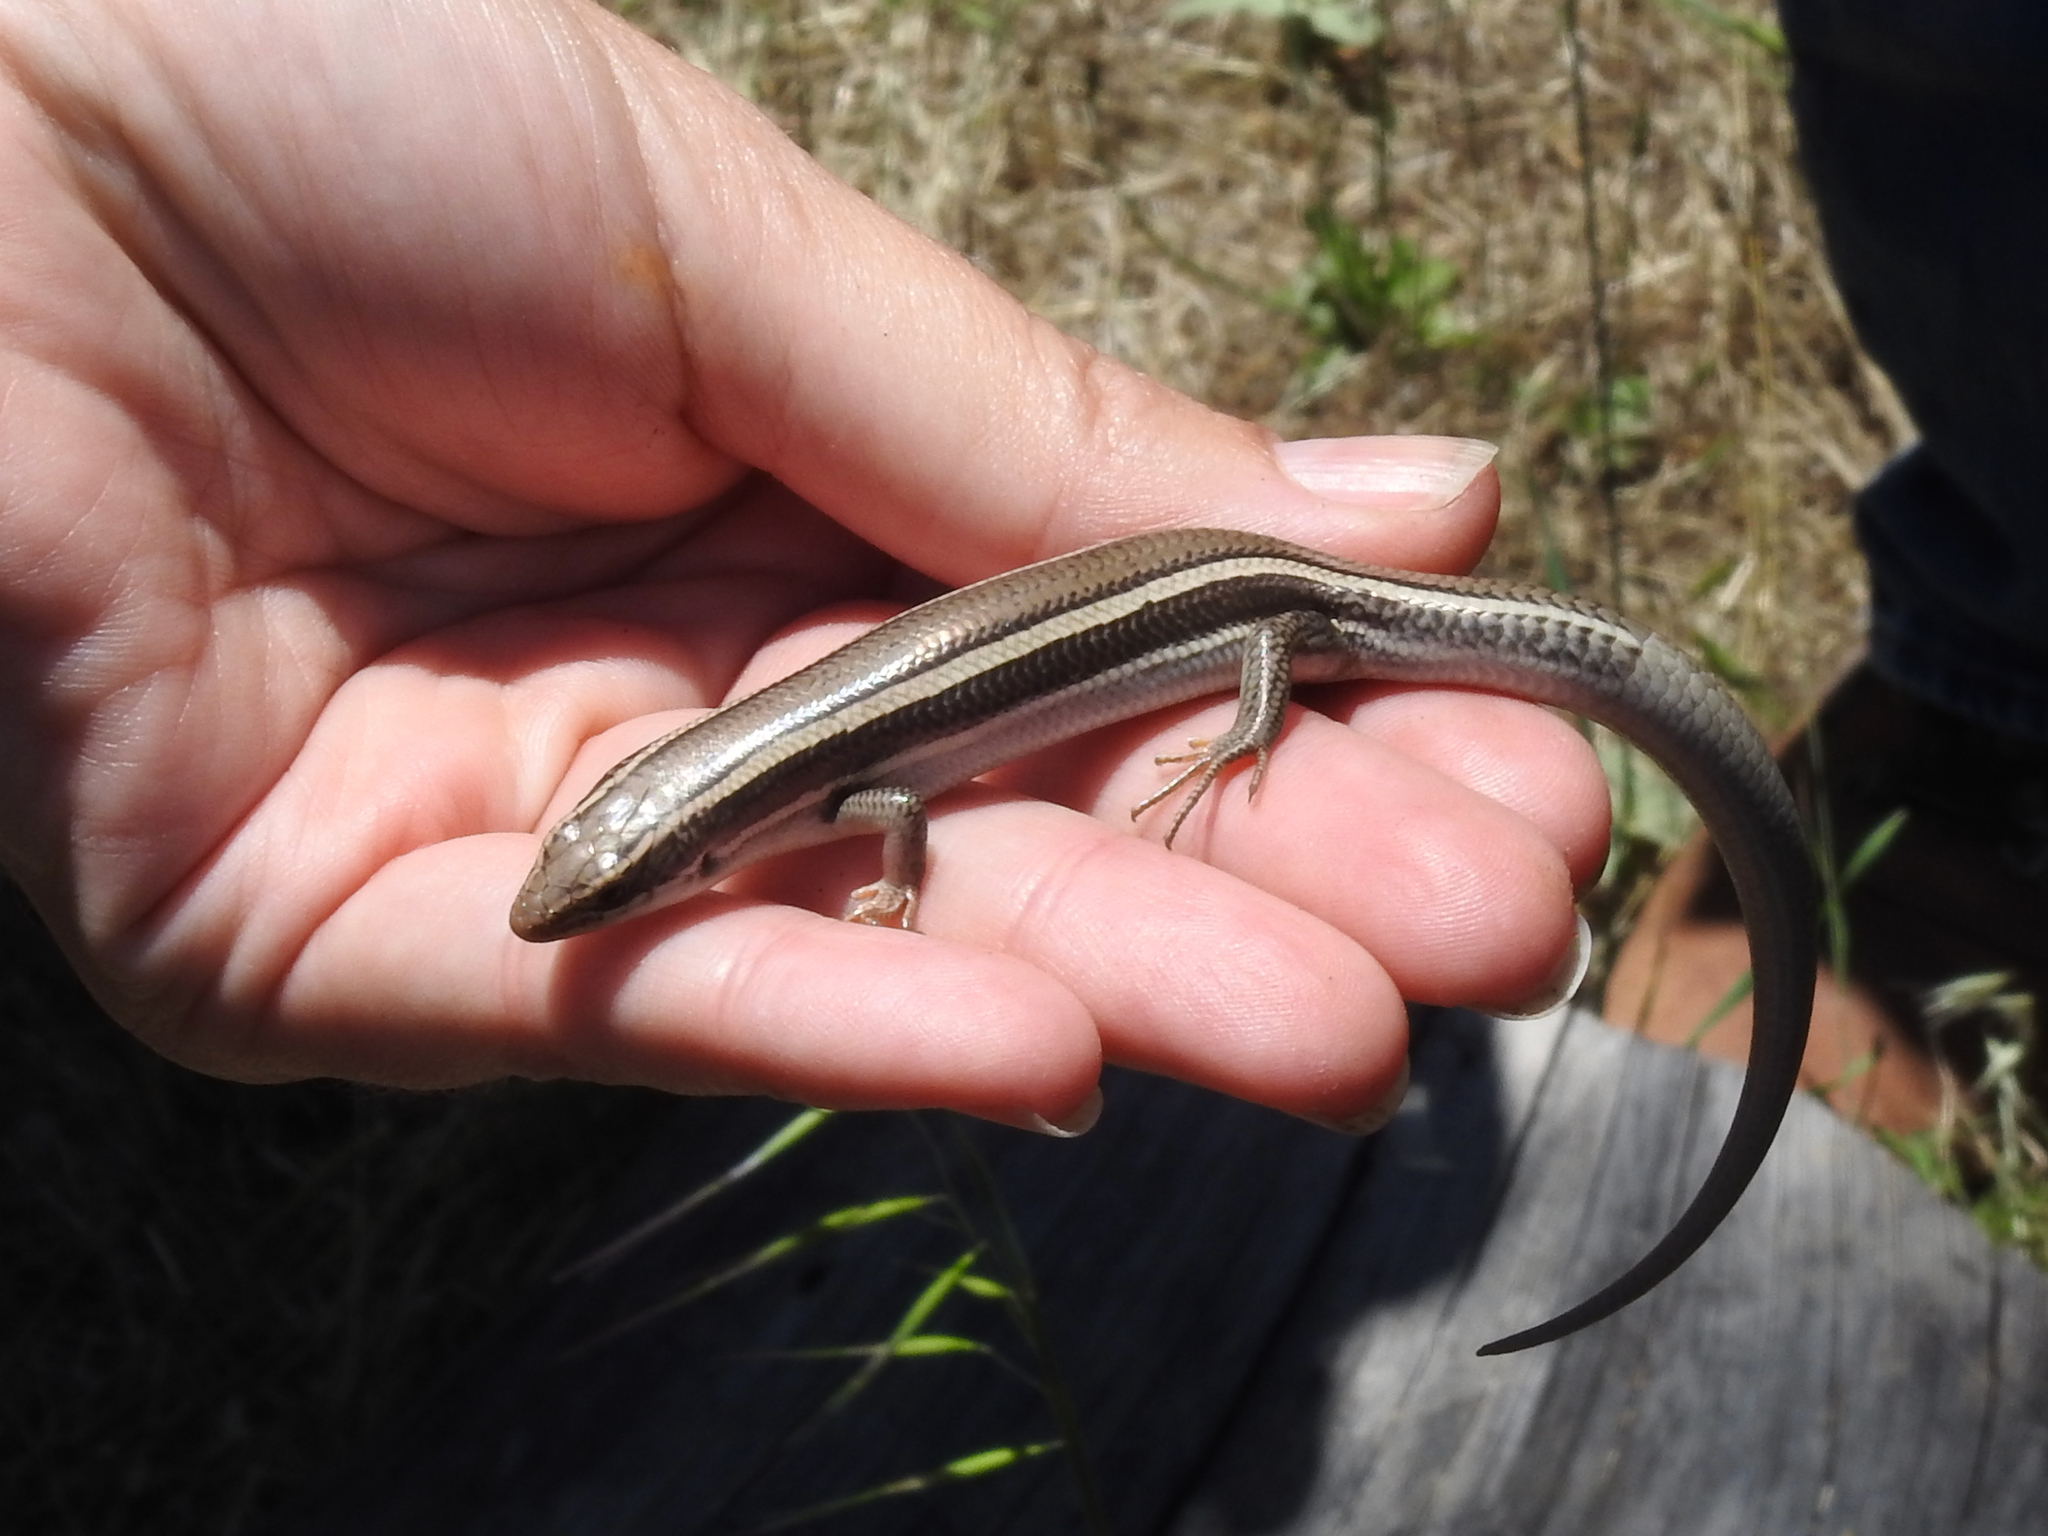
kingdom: Animalia
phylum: Chordata
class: Squamata
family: Scincidae
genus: Plestiodon
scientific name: Plestiodon skiltonianus
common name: Coronado island skink [interparietalis]
